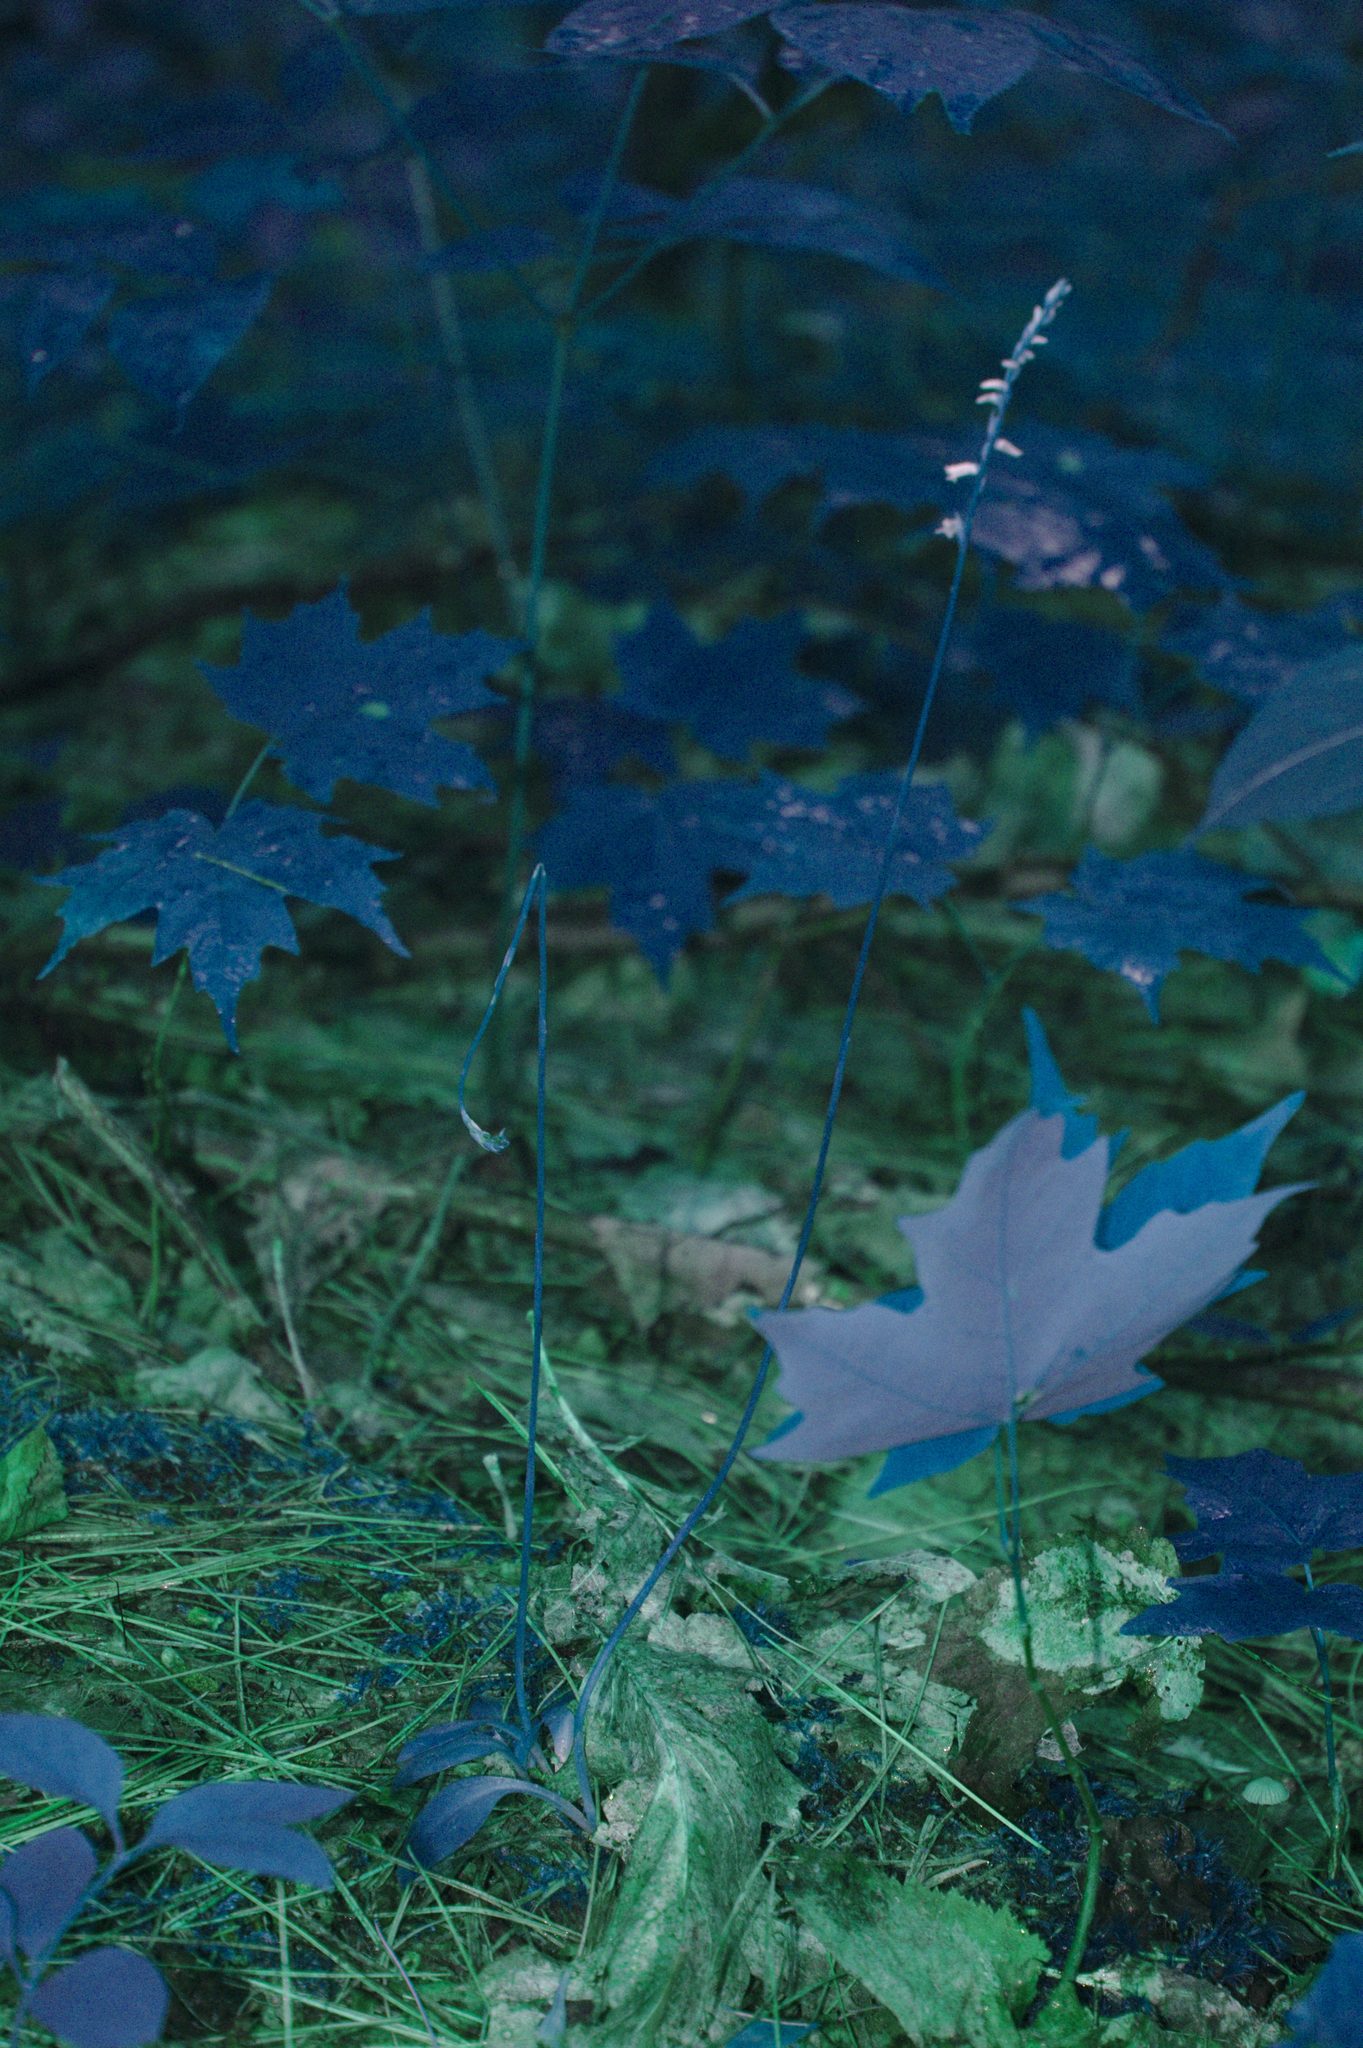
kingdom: Plantae
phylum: Tracheophyta
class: Liliopsida
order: Asparagales
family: Orchidaceae
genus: Spiranthes
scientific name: Spiranthes lacera
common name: Northern slender ladies'-tresses
